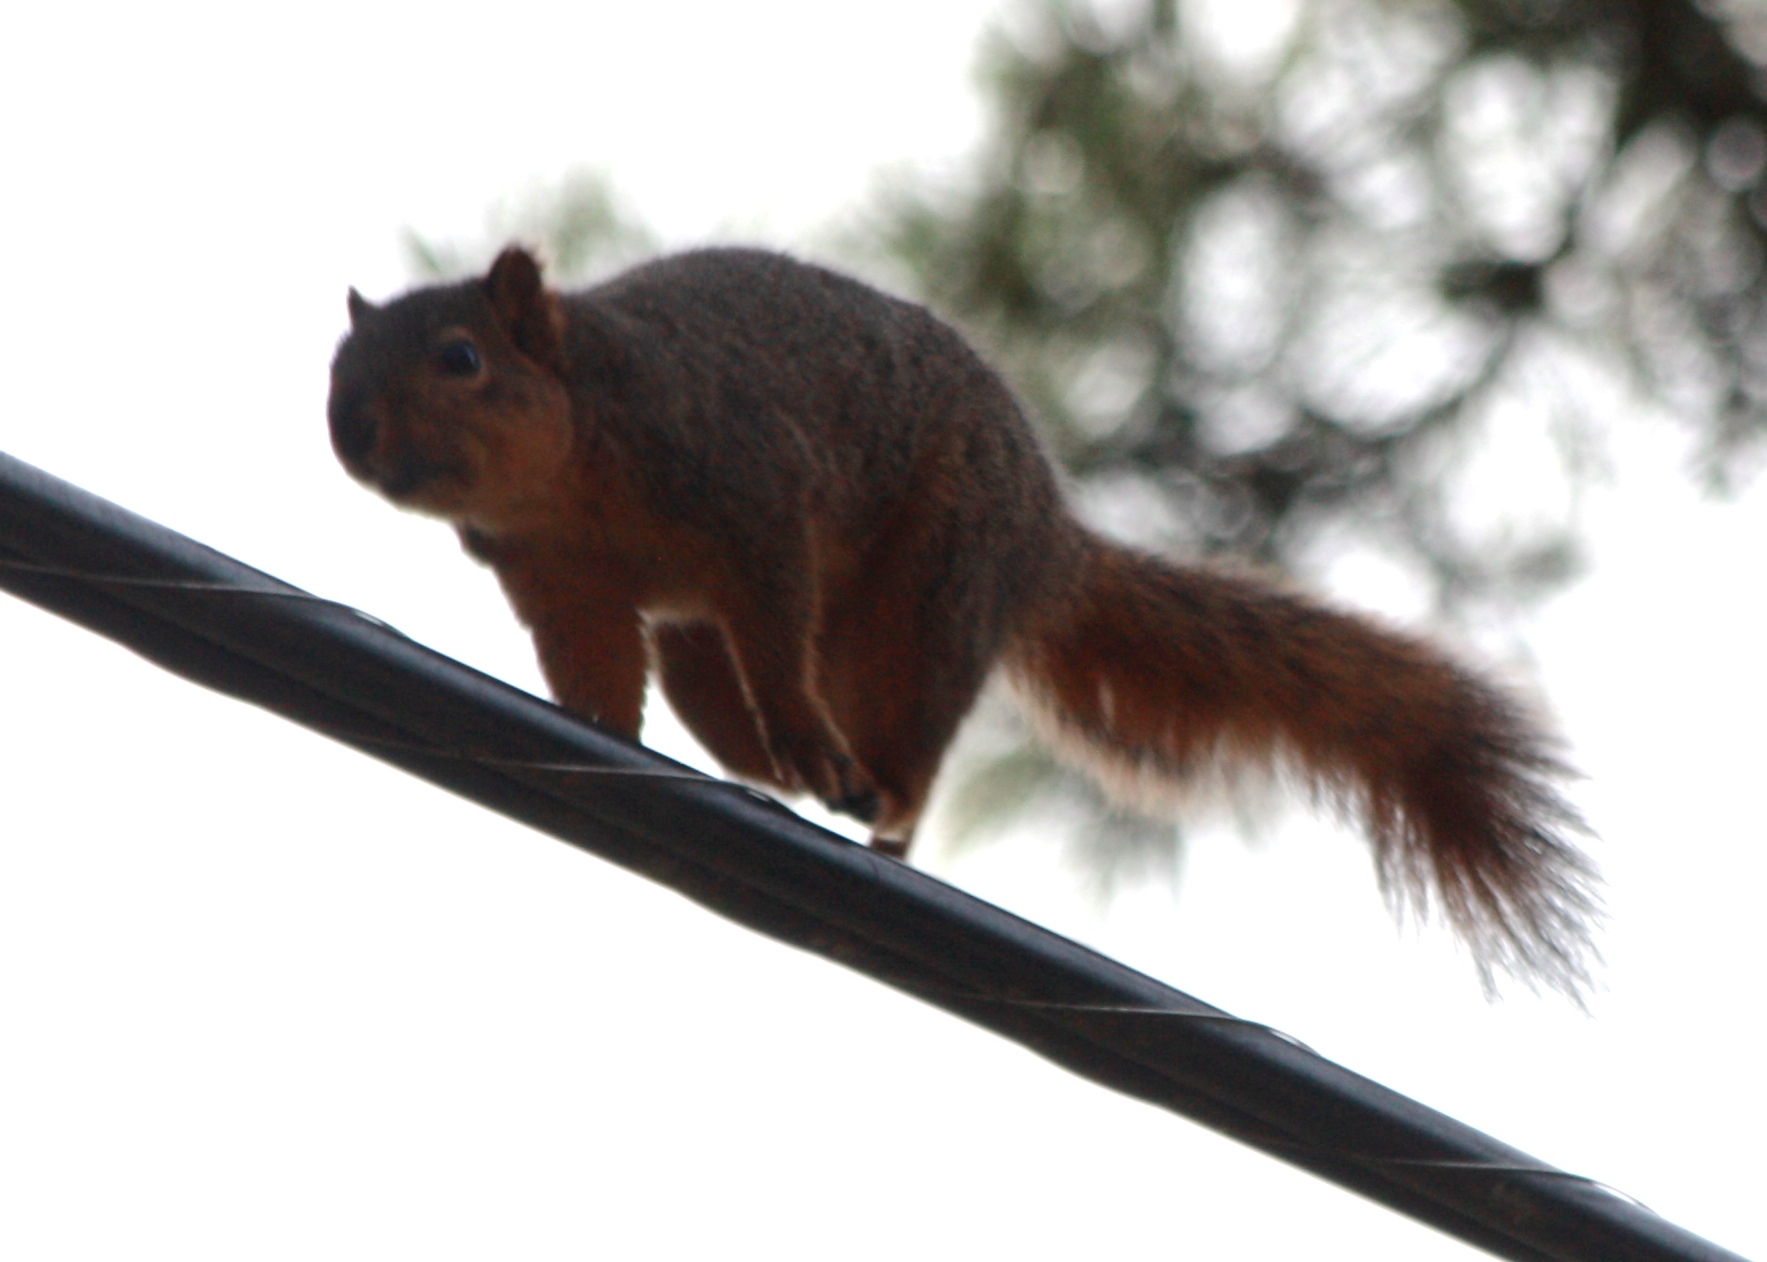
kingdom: Animalia
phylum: Chordata
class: Mammalia
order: Rodentia
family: Sciuridae
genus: Sciurus
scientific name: Sciurus niger
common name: Fox squirrel
